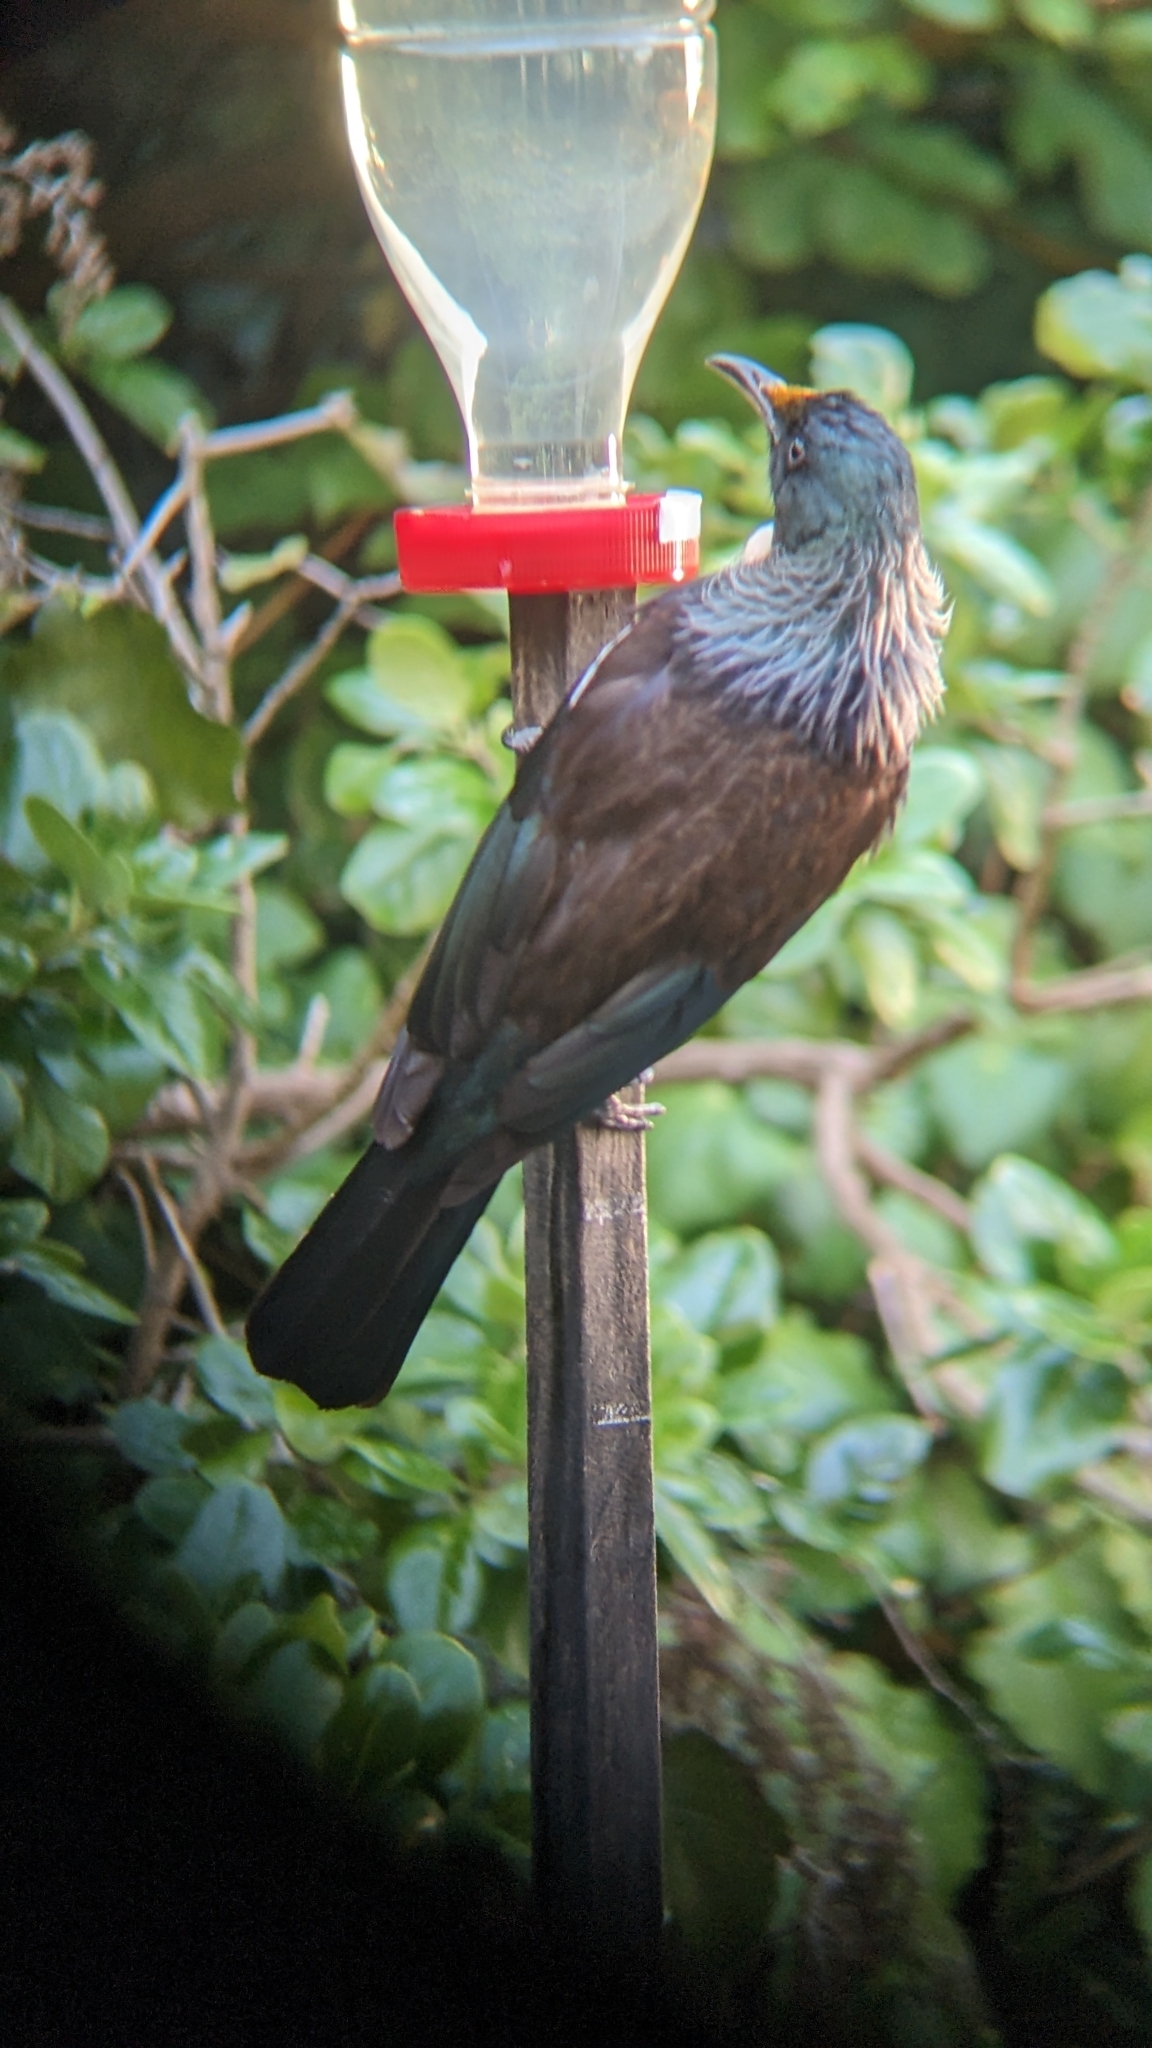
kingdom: Animalia
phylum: Chordata
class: Aves
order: Passeriformes
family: Meliphagidae
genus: Prosthemadera
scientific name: Prosthemadera novaeseelandiae
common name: Tui
